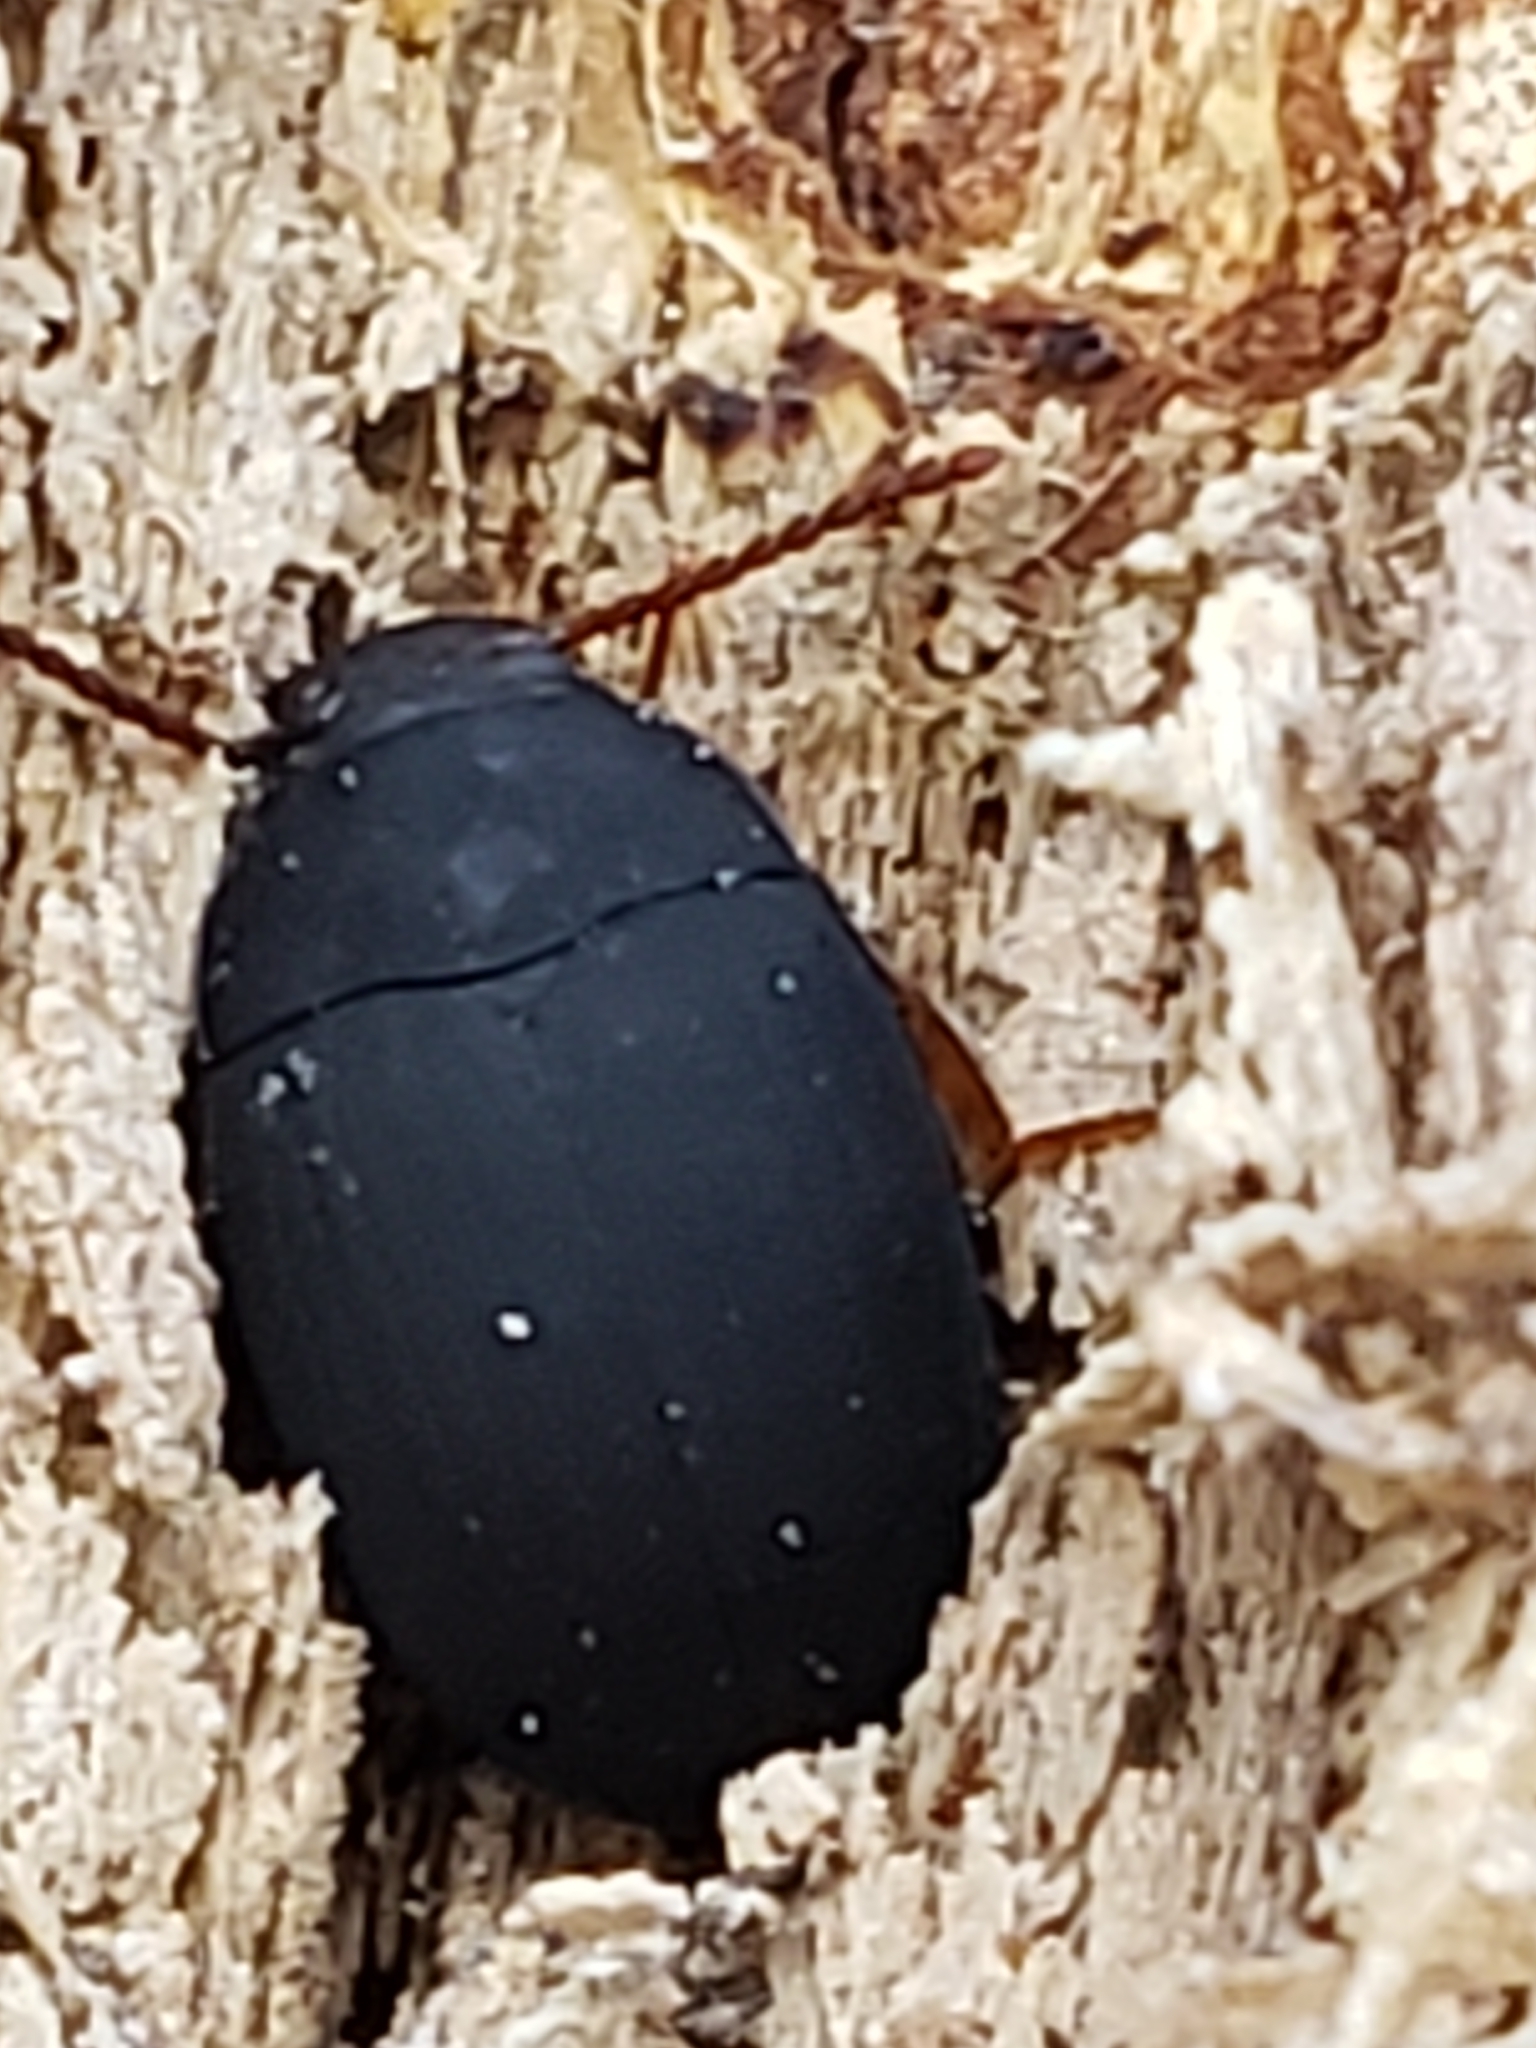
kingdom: Animalia
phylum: Arthropoda
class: Insecta
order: Coleoptera
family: Tenebrionidae
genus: Platydema
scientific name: Platydema ruficornis
